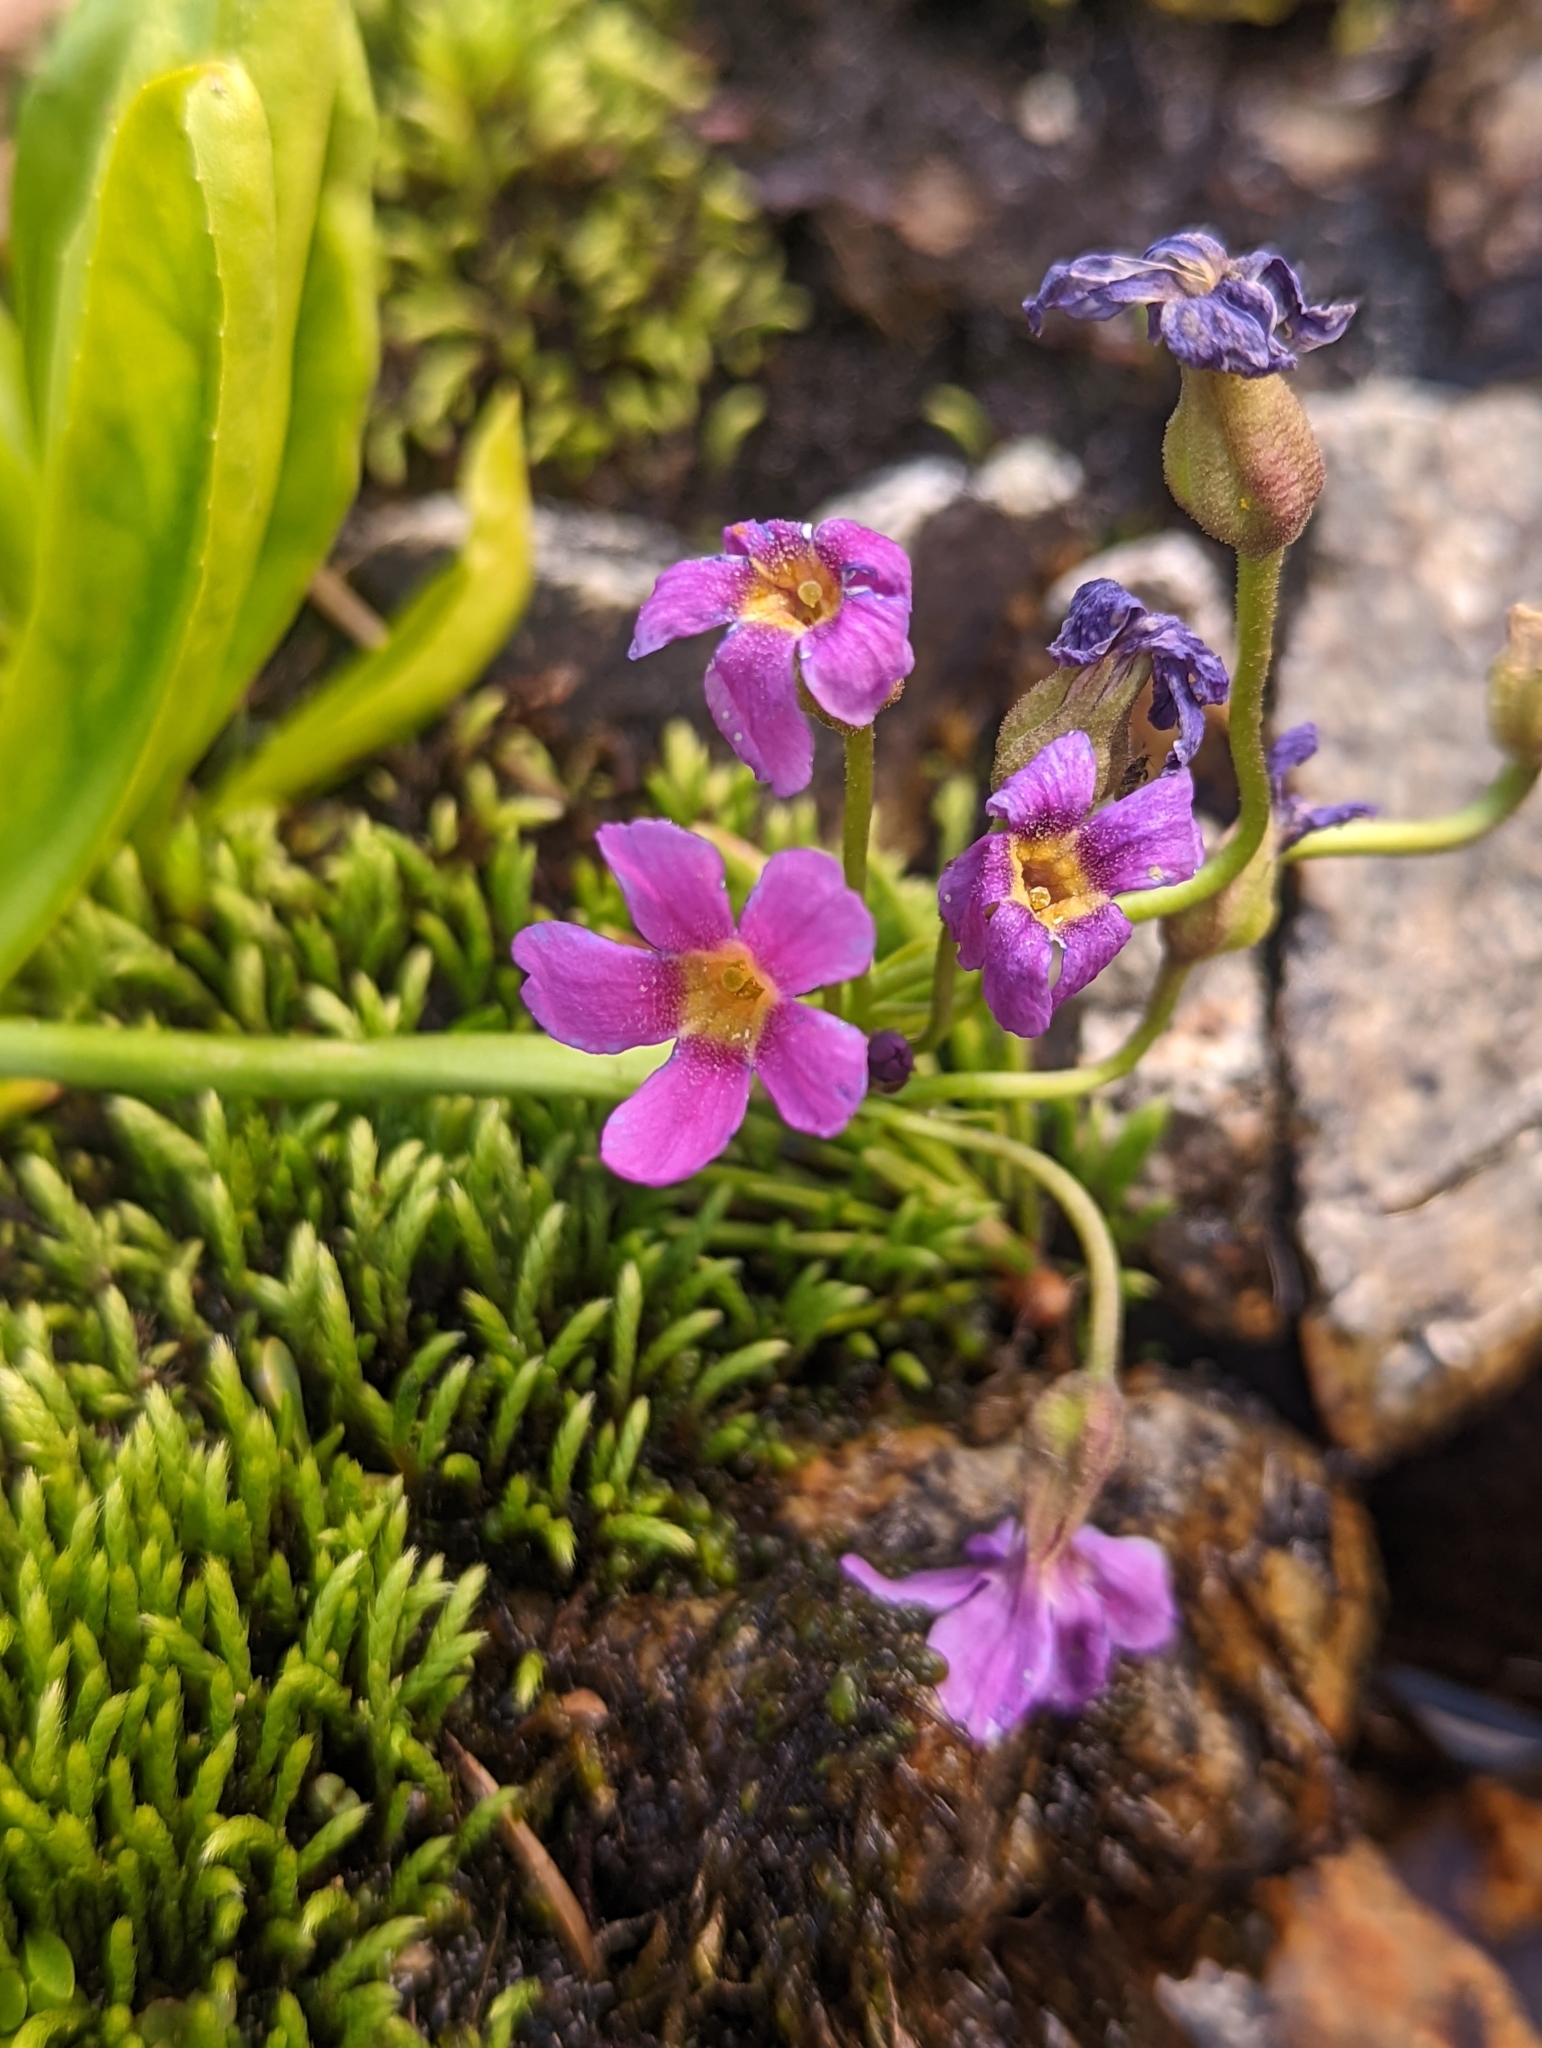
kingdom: Plantae
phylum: Tracheophyta
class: Magnoliopsida
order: Ericales
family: Primulaceae
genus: Primula
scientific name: Primula parryi
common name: Parry's primrose
